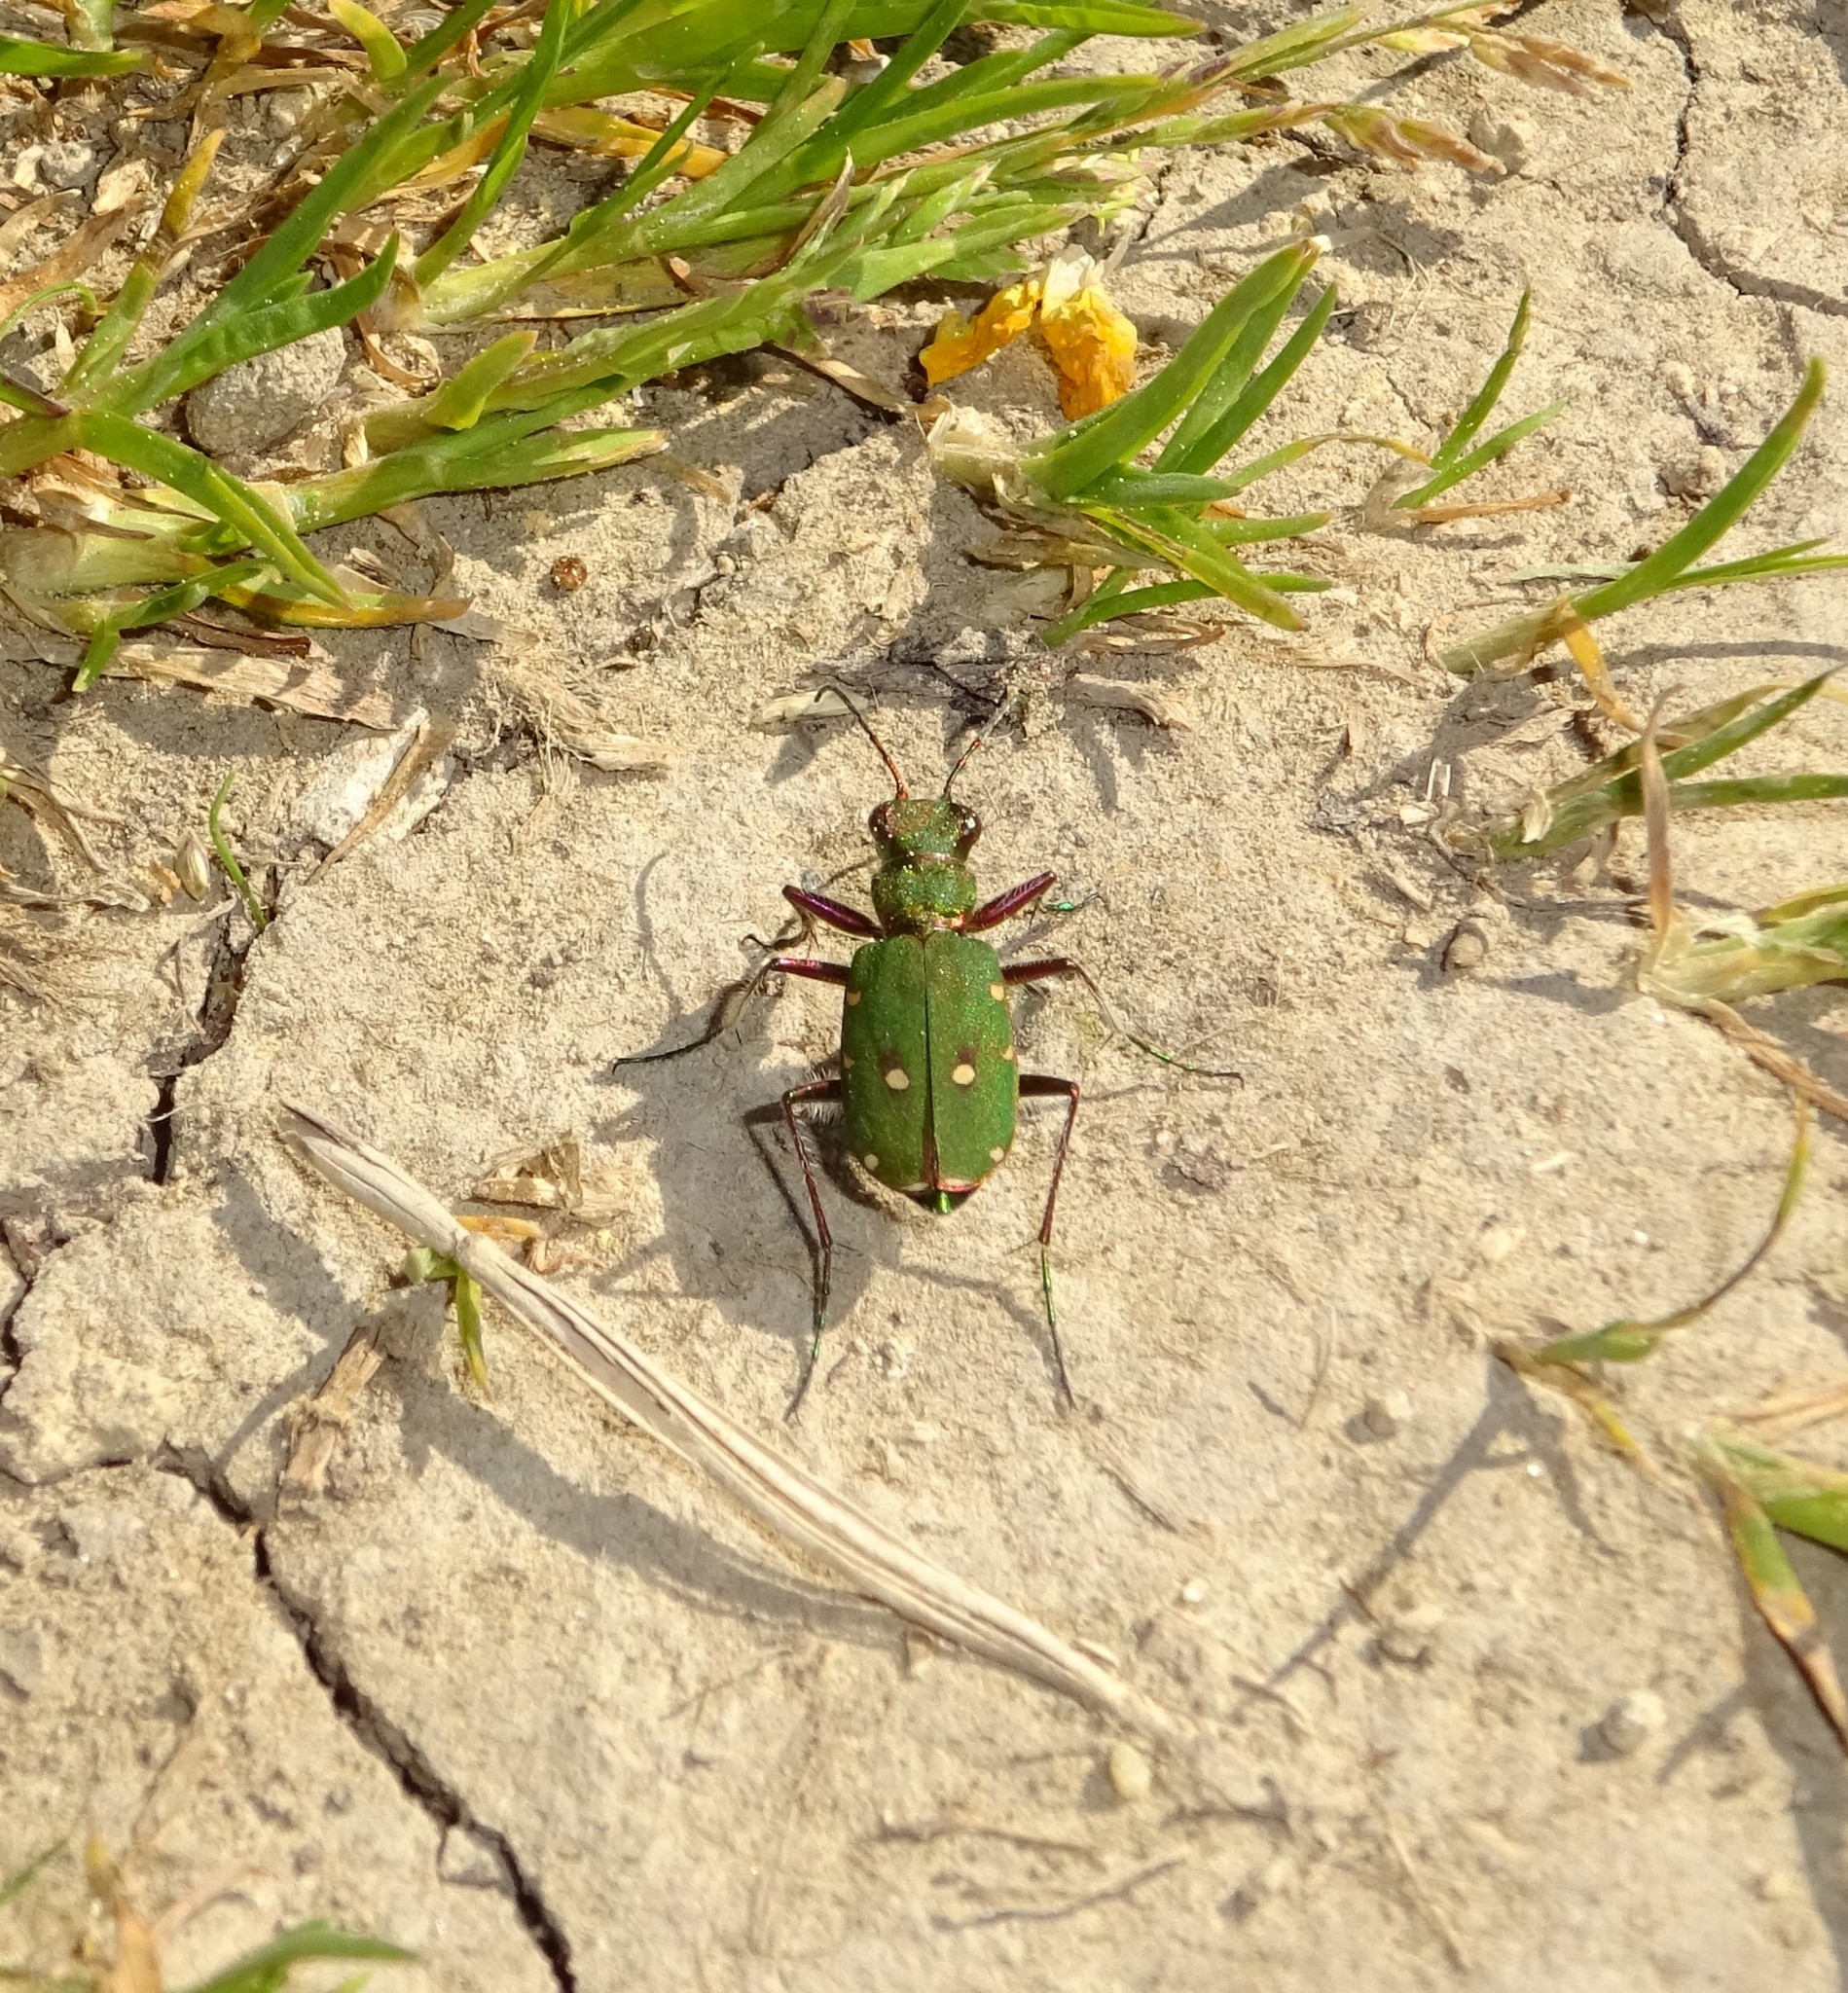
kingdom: Animalia
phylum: Arthropoda
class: Insecta
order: Coleoptera
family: Carabidae
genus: Cicindela
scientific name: Cicindela campestris
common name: Common tiger beetle
